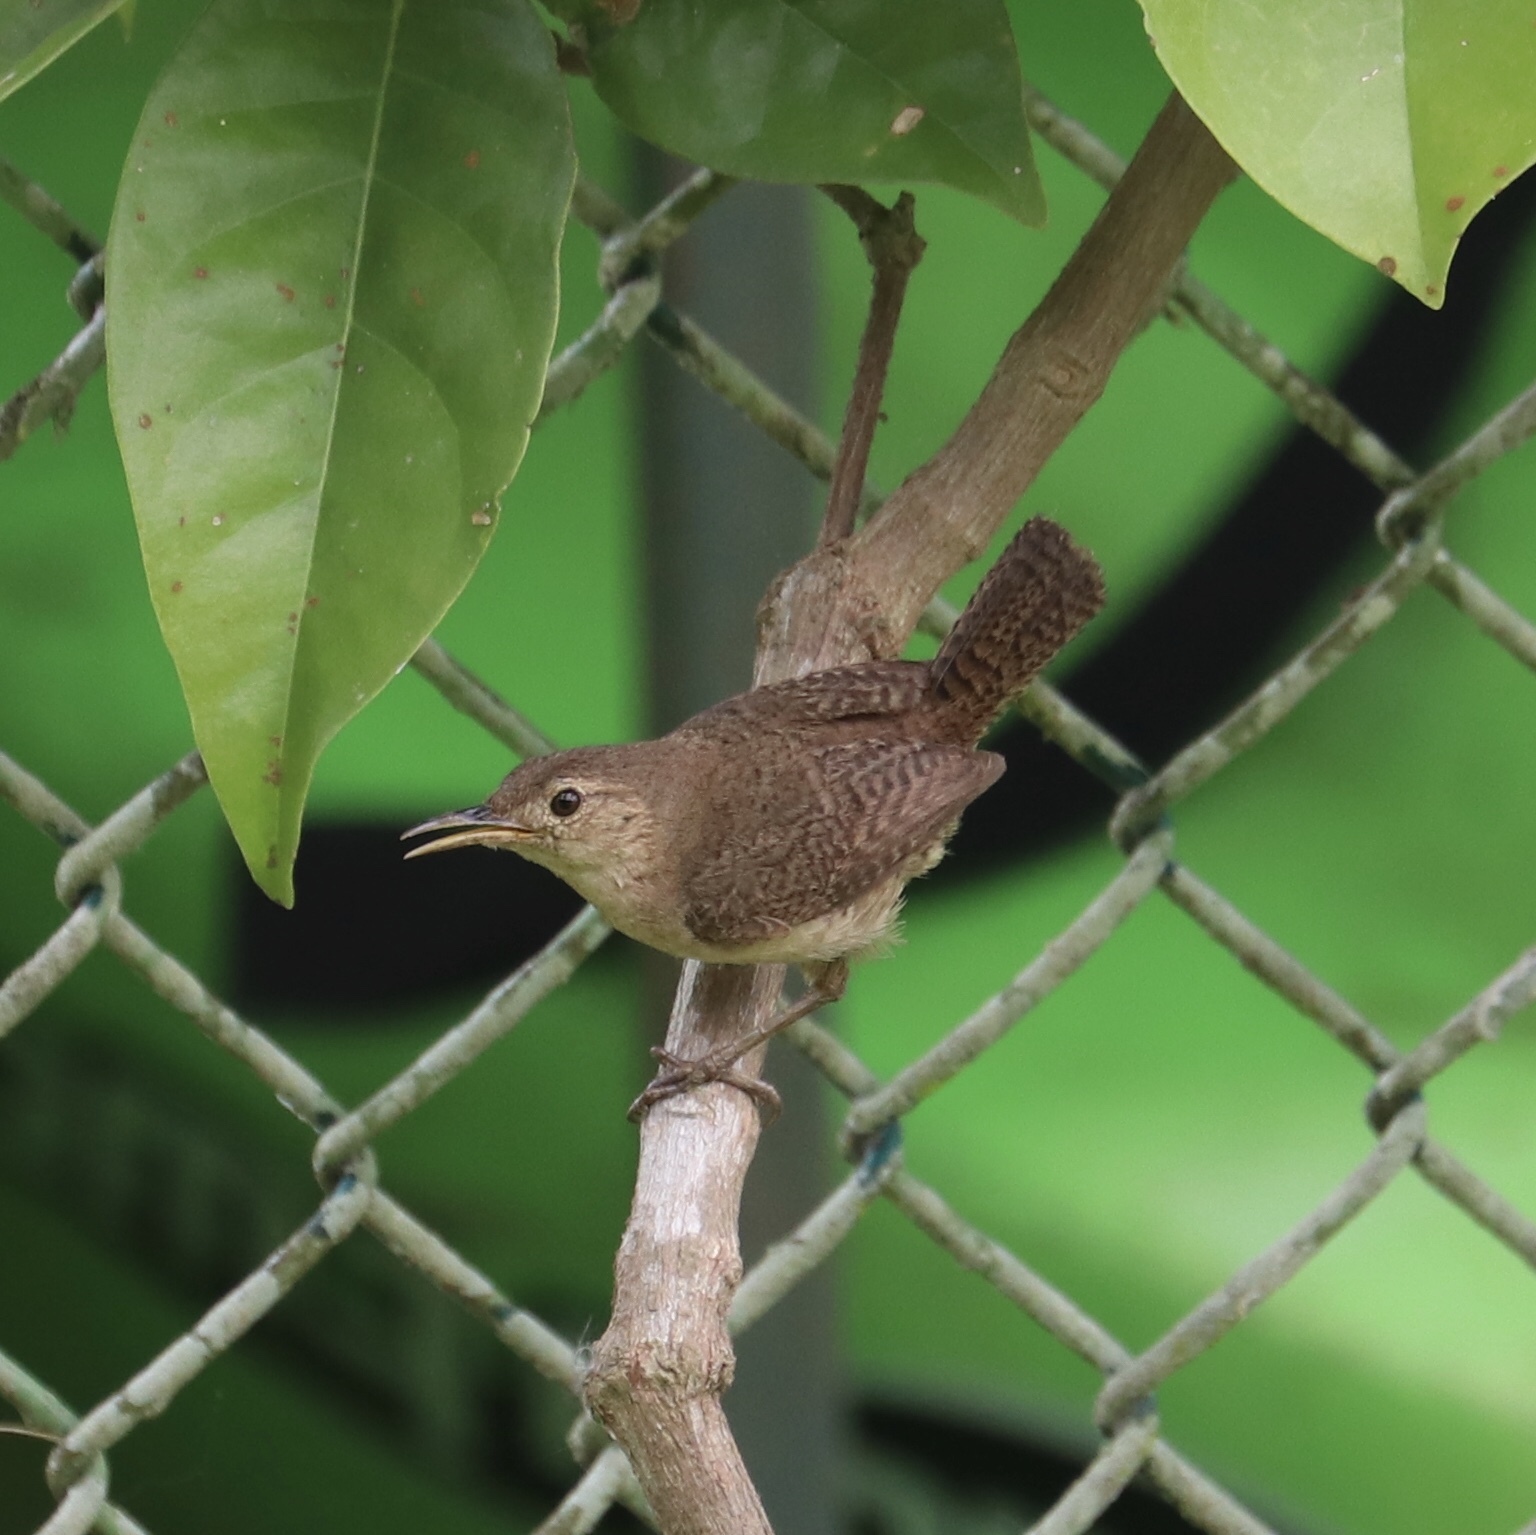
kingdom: Animalia
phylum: Chordata
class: Aves
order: Passeriformes
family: Troglodytidae
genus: Troglodytes
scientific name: Troglodytes aedon
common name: House wren
